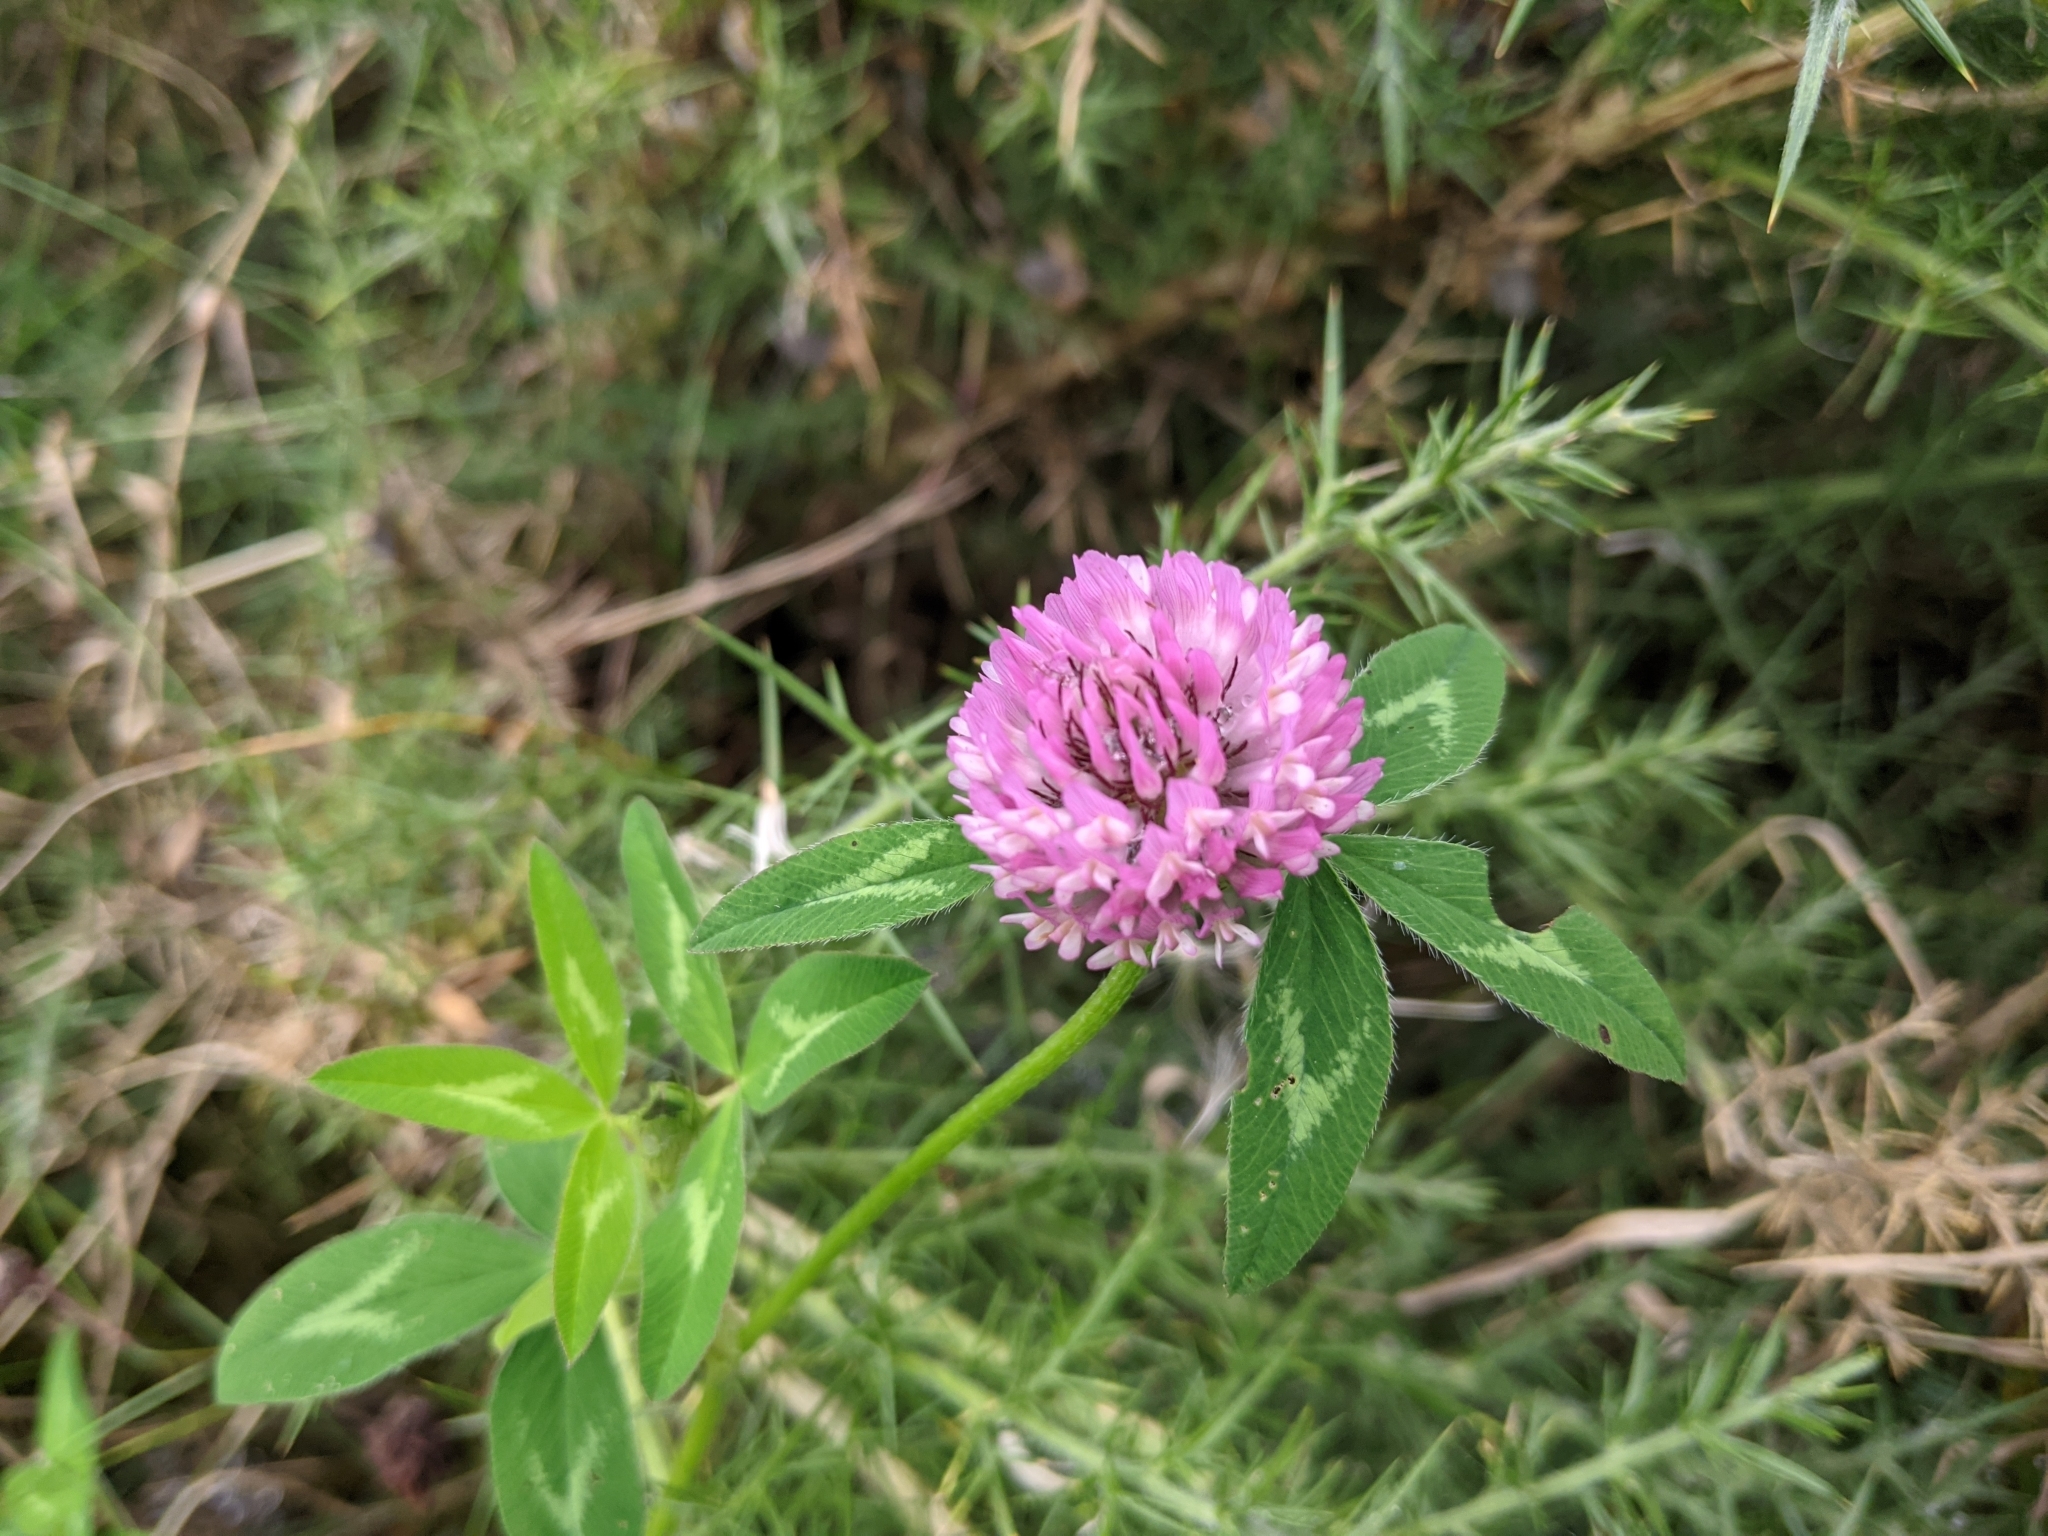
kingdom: Plantae
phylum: Tracheophyta
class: Magnoliopsida
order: Fabales
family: Fabaceae
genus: Trifolium
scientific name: Trifolium pratense
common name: Red clover
